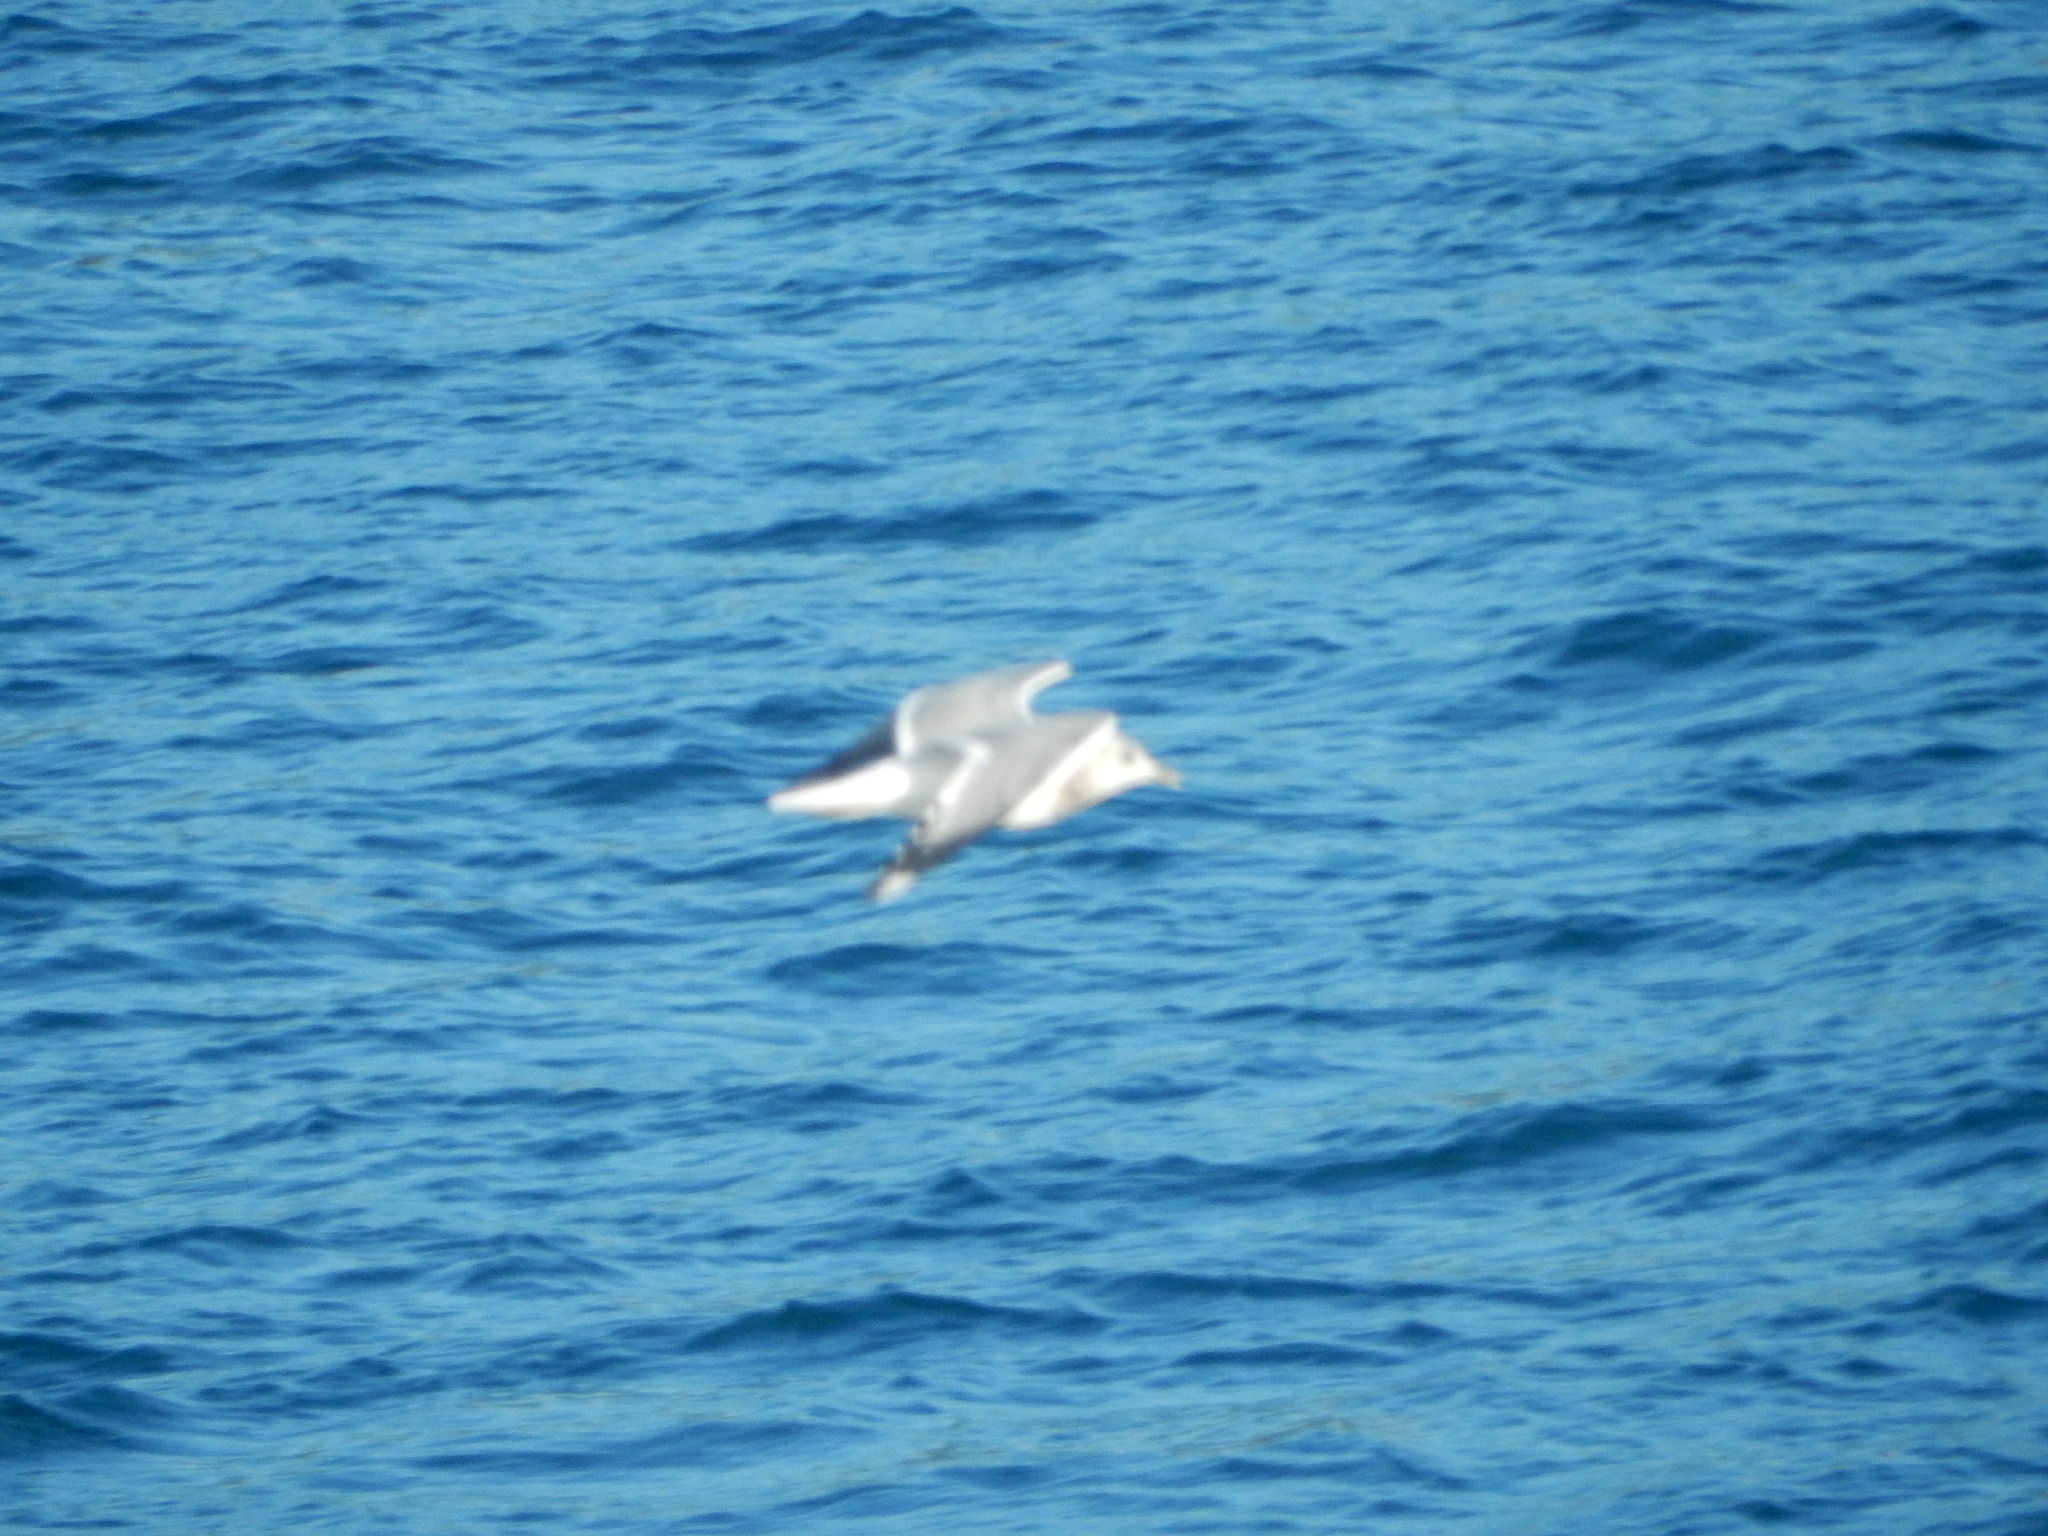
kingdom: Animalia
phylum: Chordata
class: Aves
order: Charadriiformes
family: Laridae
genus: Larus
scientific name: Larus brachyrhynchus
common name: Short-billed gull
